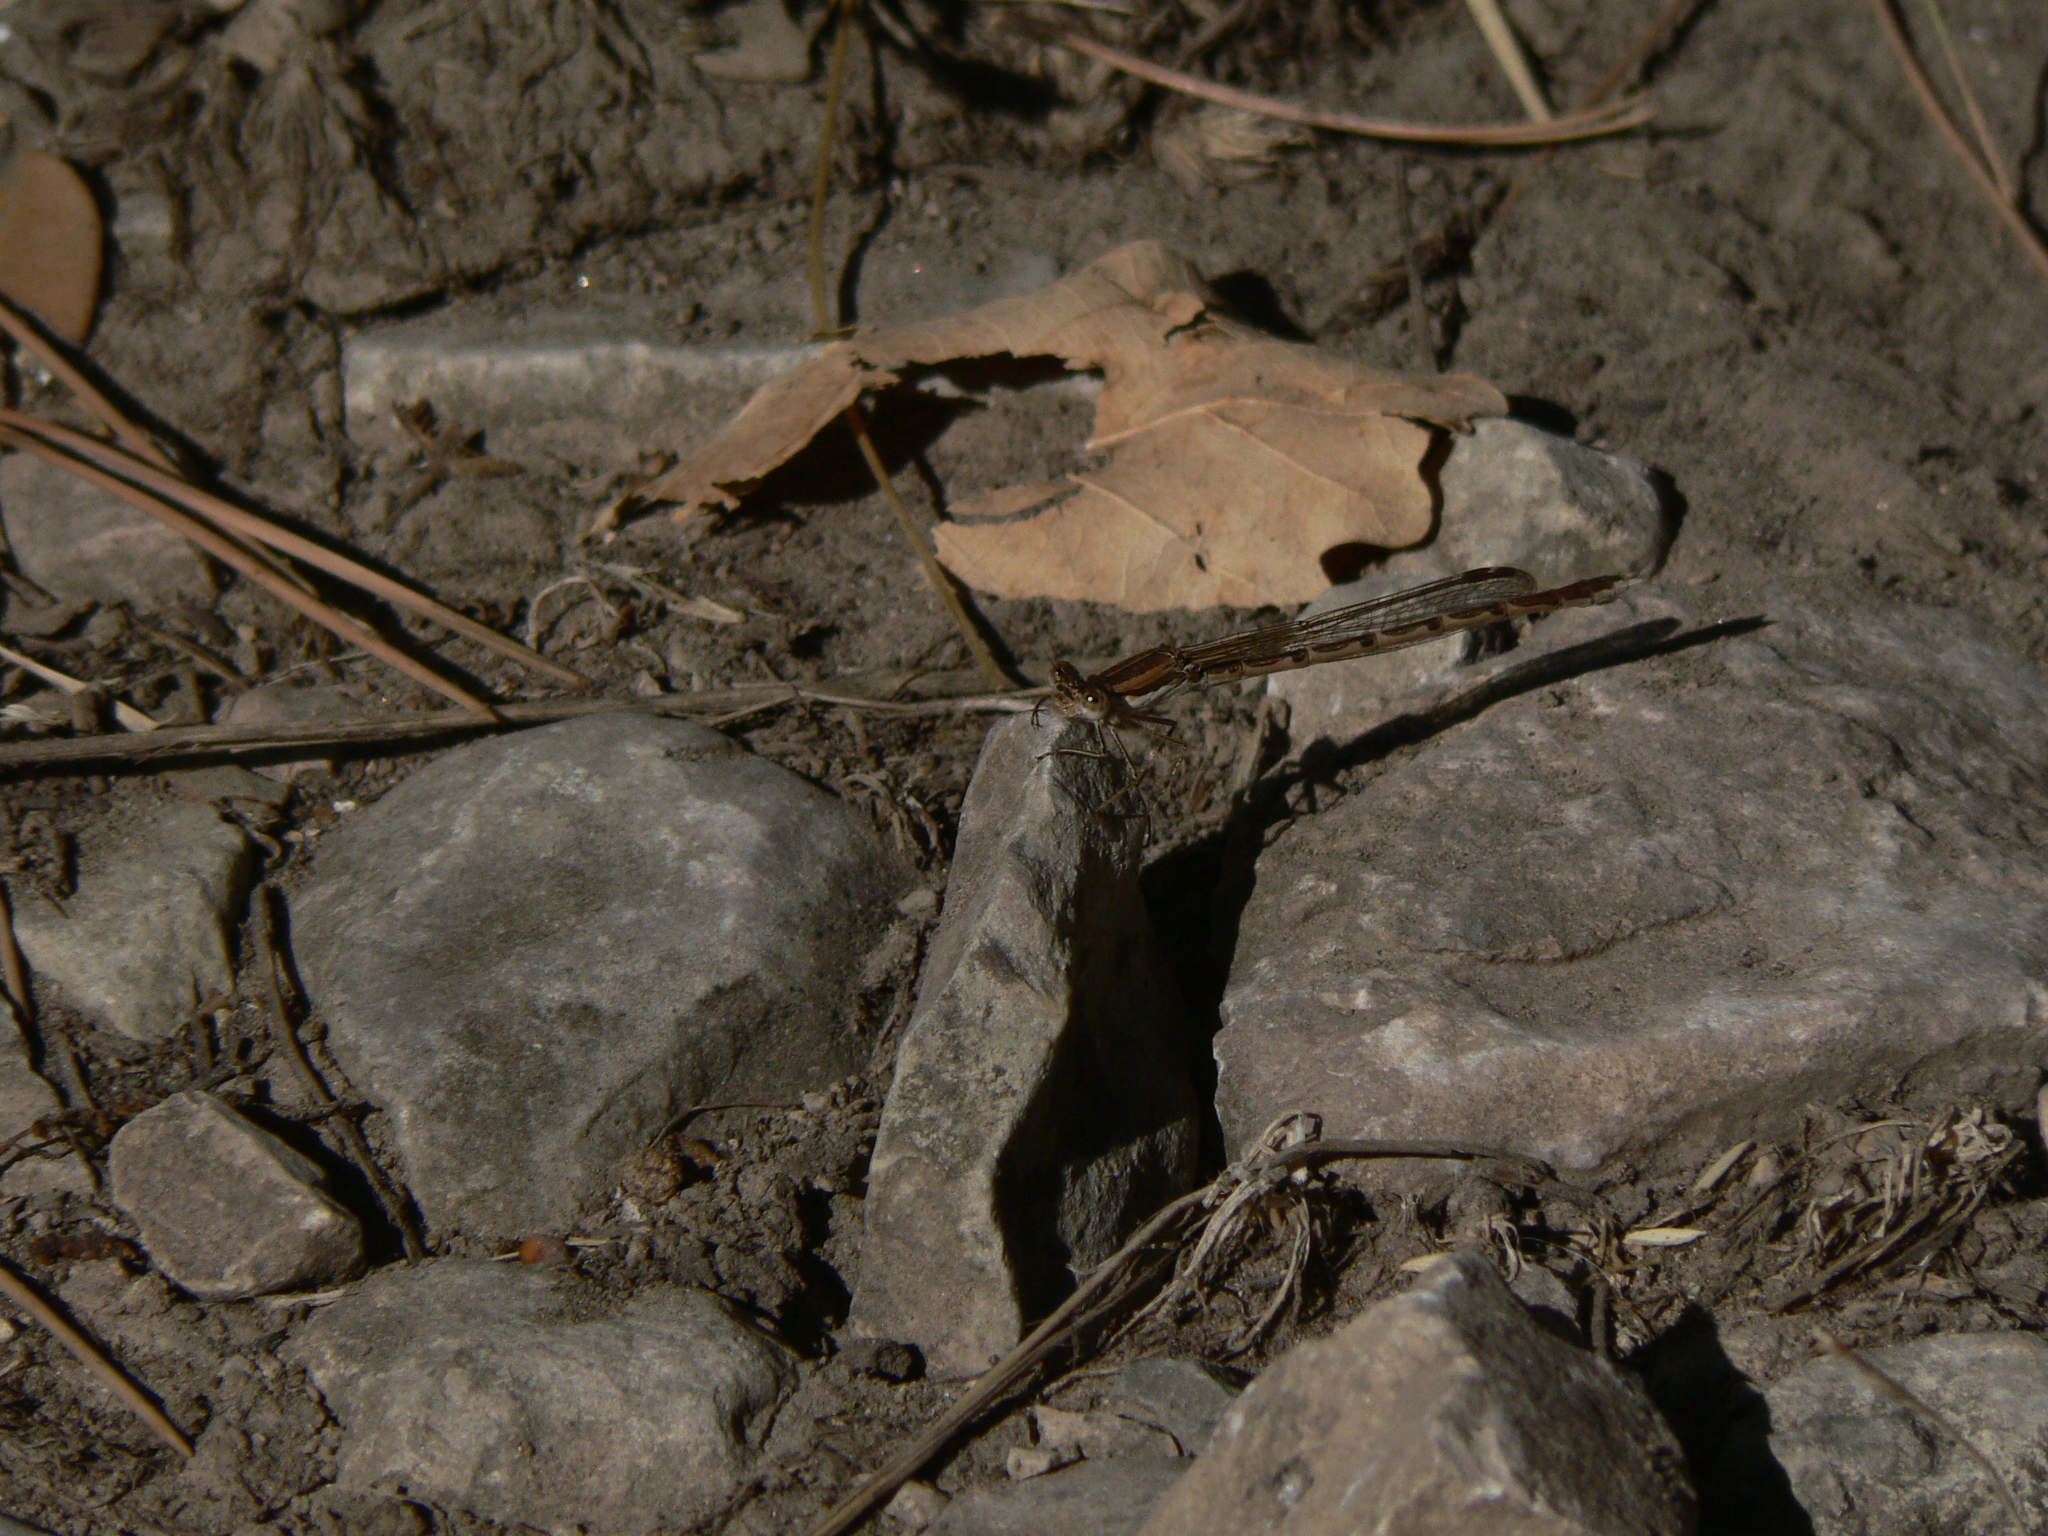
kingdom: Animalia
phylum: Arthropoda
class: Insecta
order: Odonata
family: Lestidae
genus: Sympecma
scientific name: Sympecma fusca
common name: Common winter damsel
